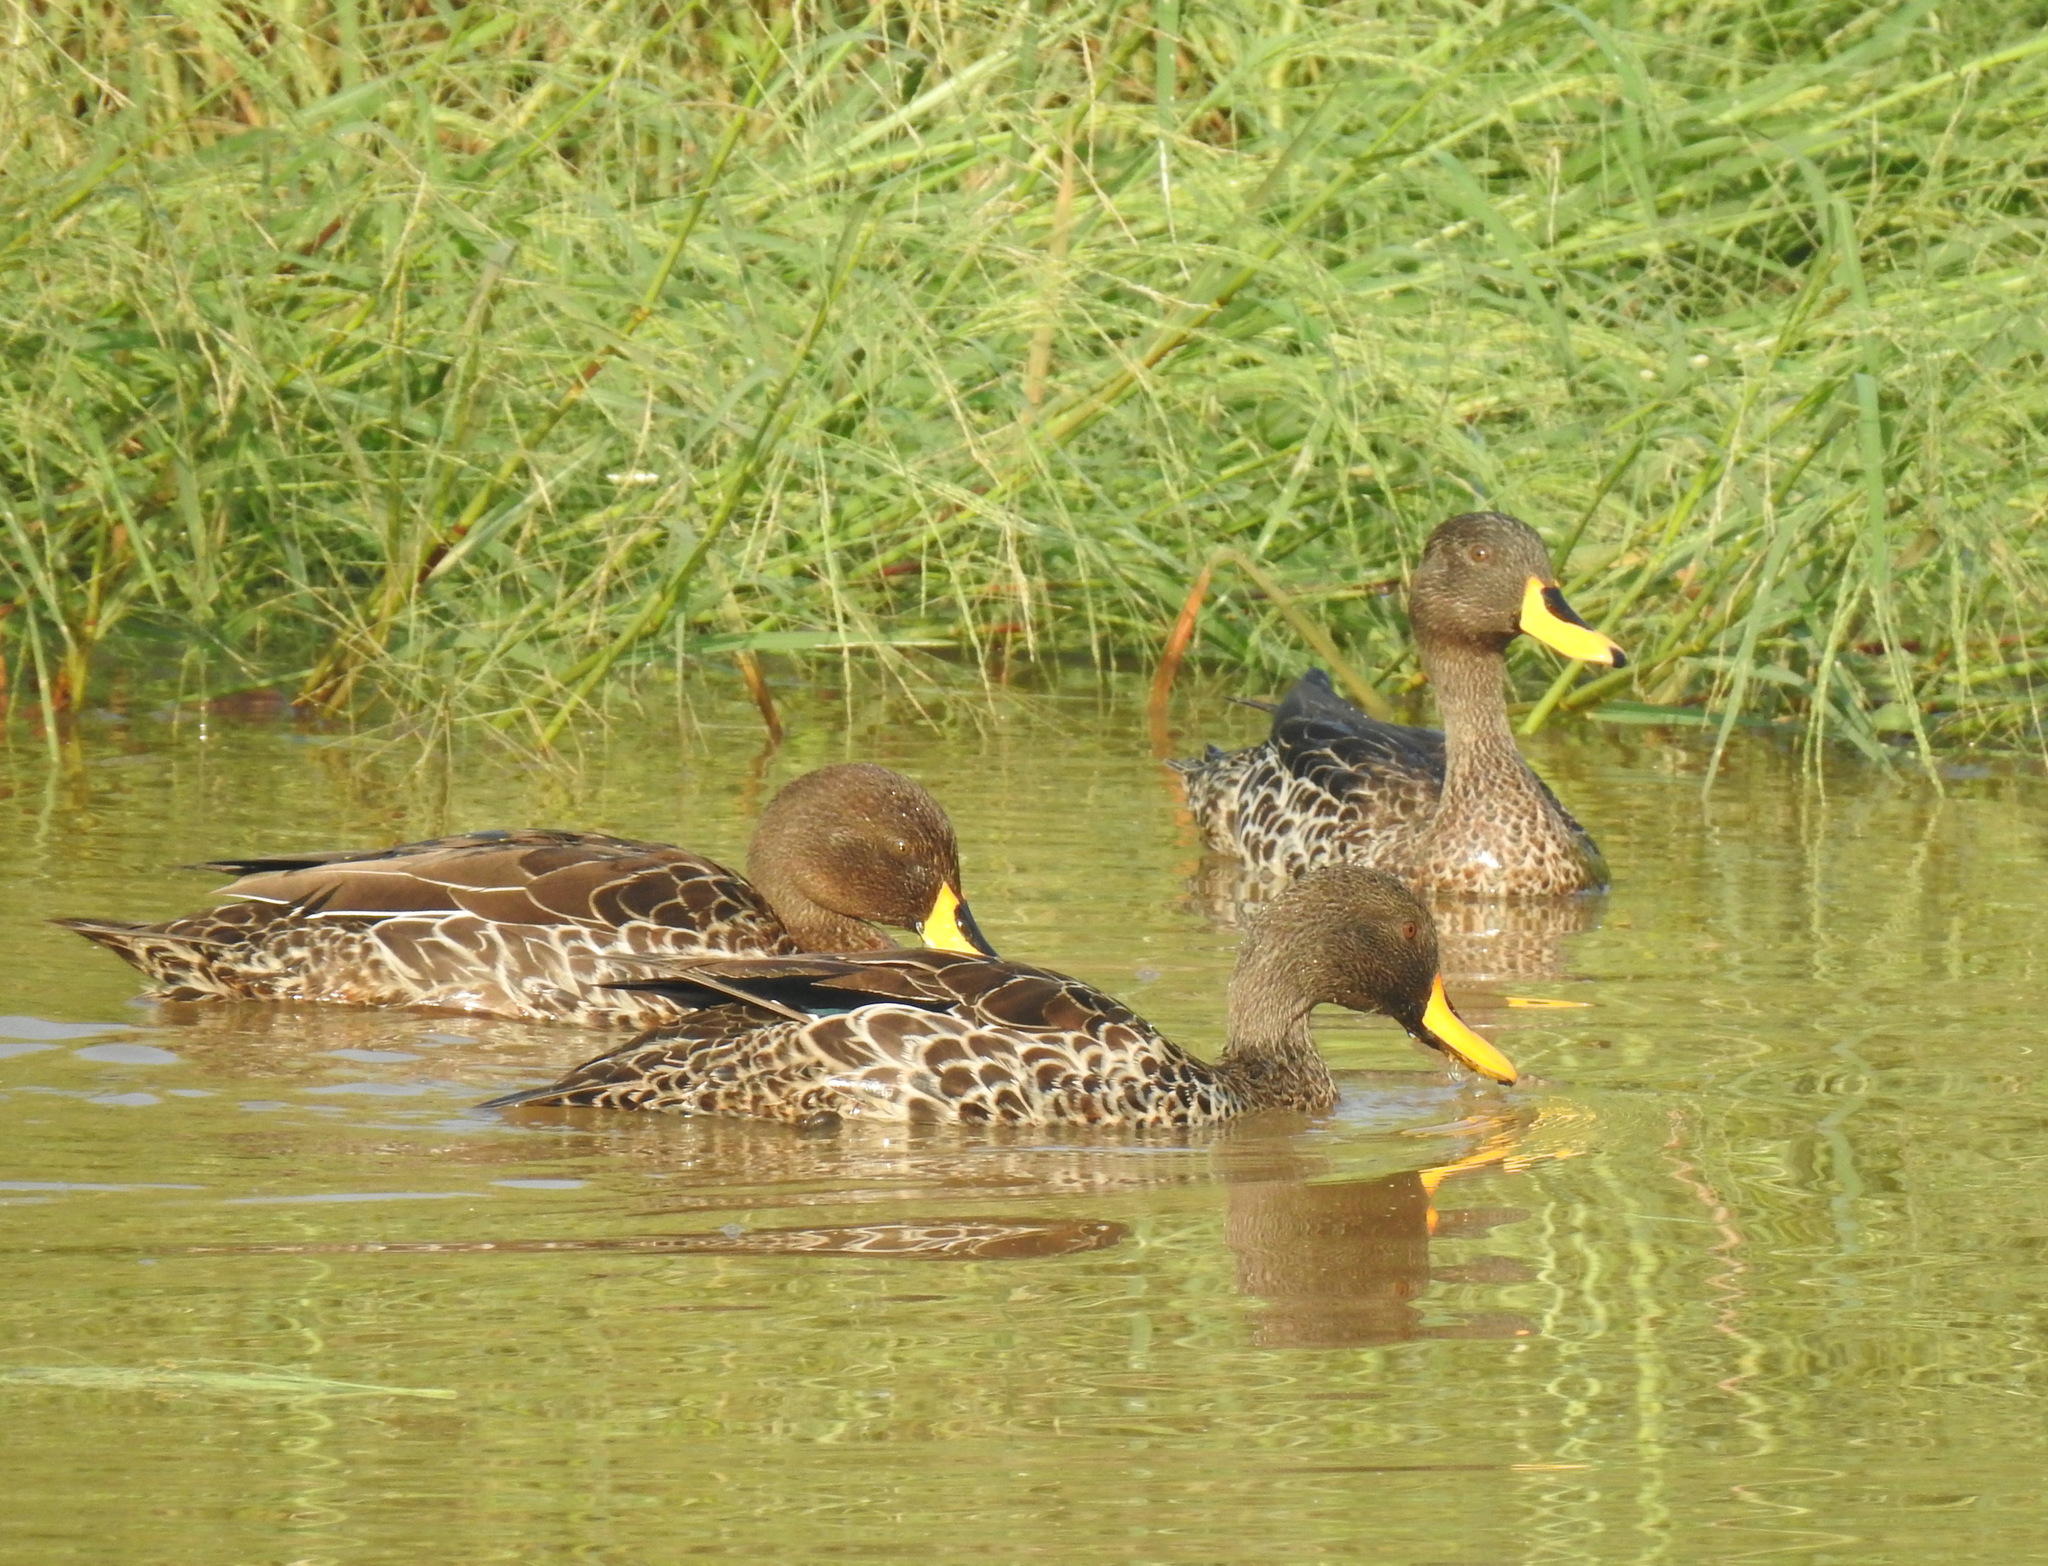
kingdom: Animalia
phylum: Chordata
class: Aves
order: Anseriformes
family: Anatidae
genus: Anas
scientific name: Anas undulata
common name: Yellow-billed duck
